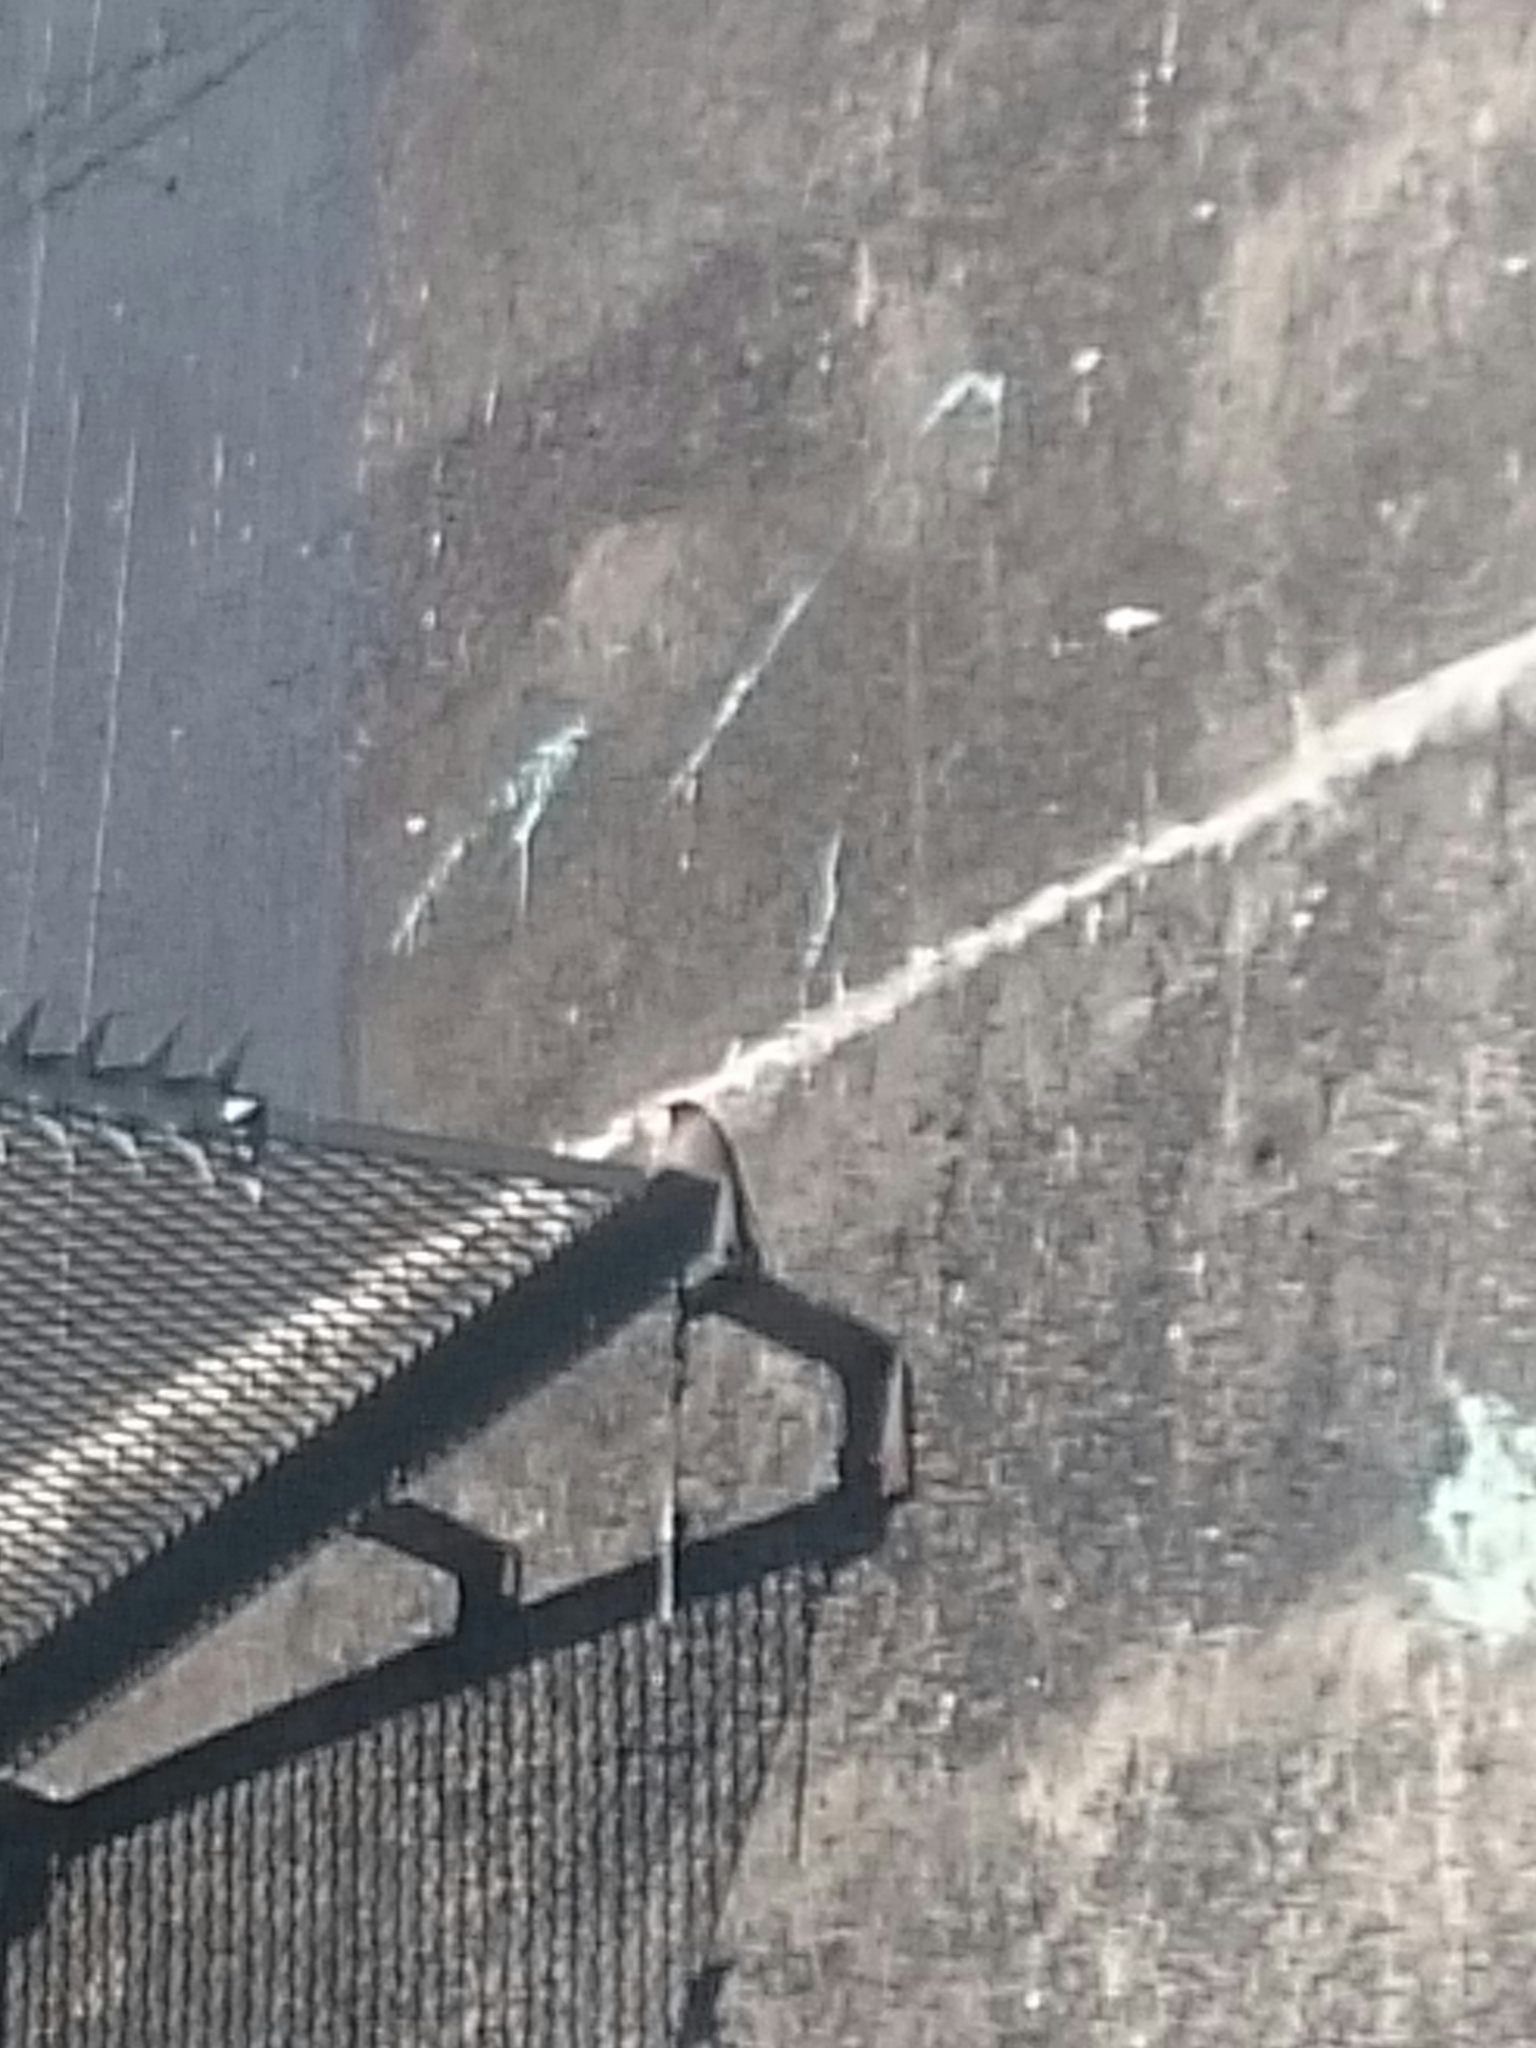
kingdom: Animalia
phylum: Chordata
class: Aves
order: Passeriformes
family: Hirundinidae
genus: Hirundo
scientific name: Hirundo neoxena
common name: Welcome swallow
